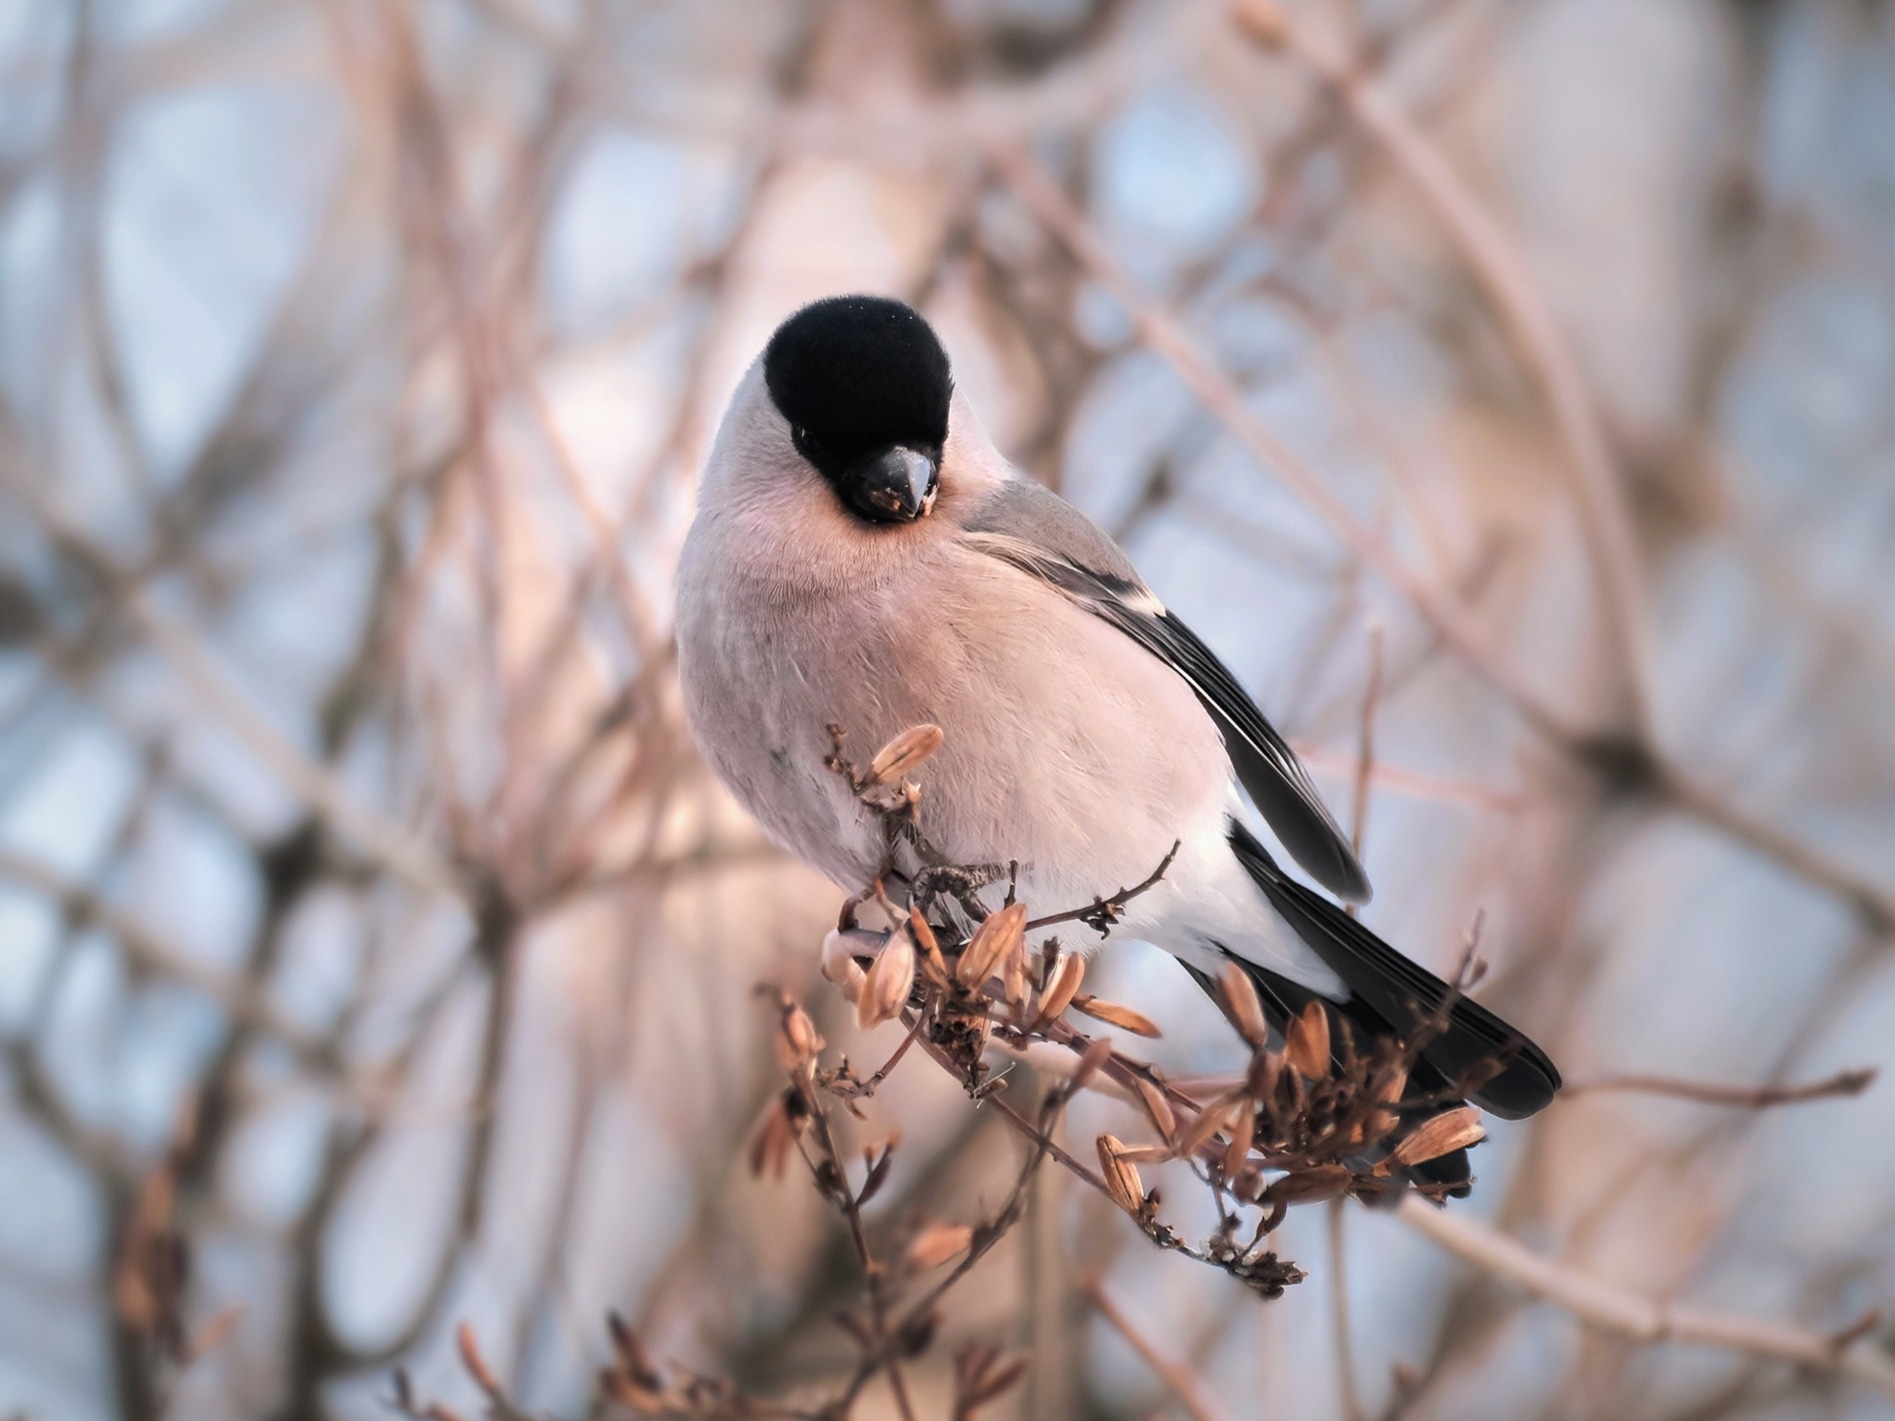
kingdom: Animalia
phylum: Chordata
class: Aves
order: Passeriformes
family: Fringillidae
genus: Pyrrhula
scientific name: Pyrrhula pyrrhula
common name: Eurasian bullfinch
